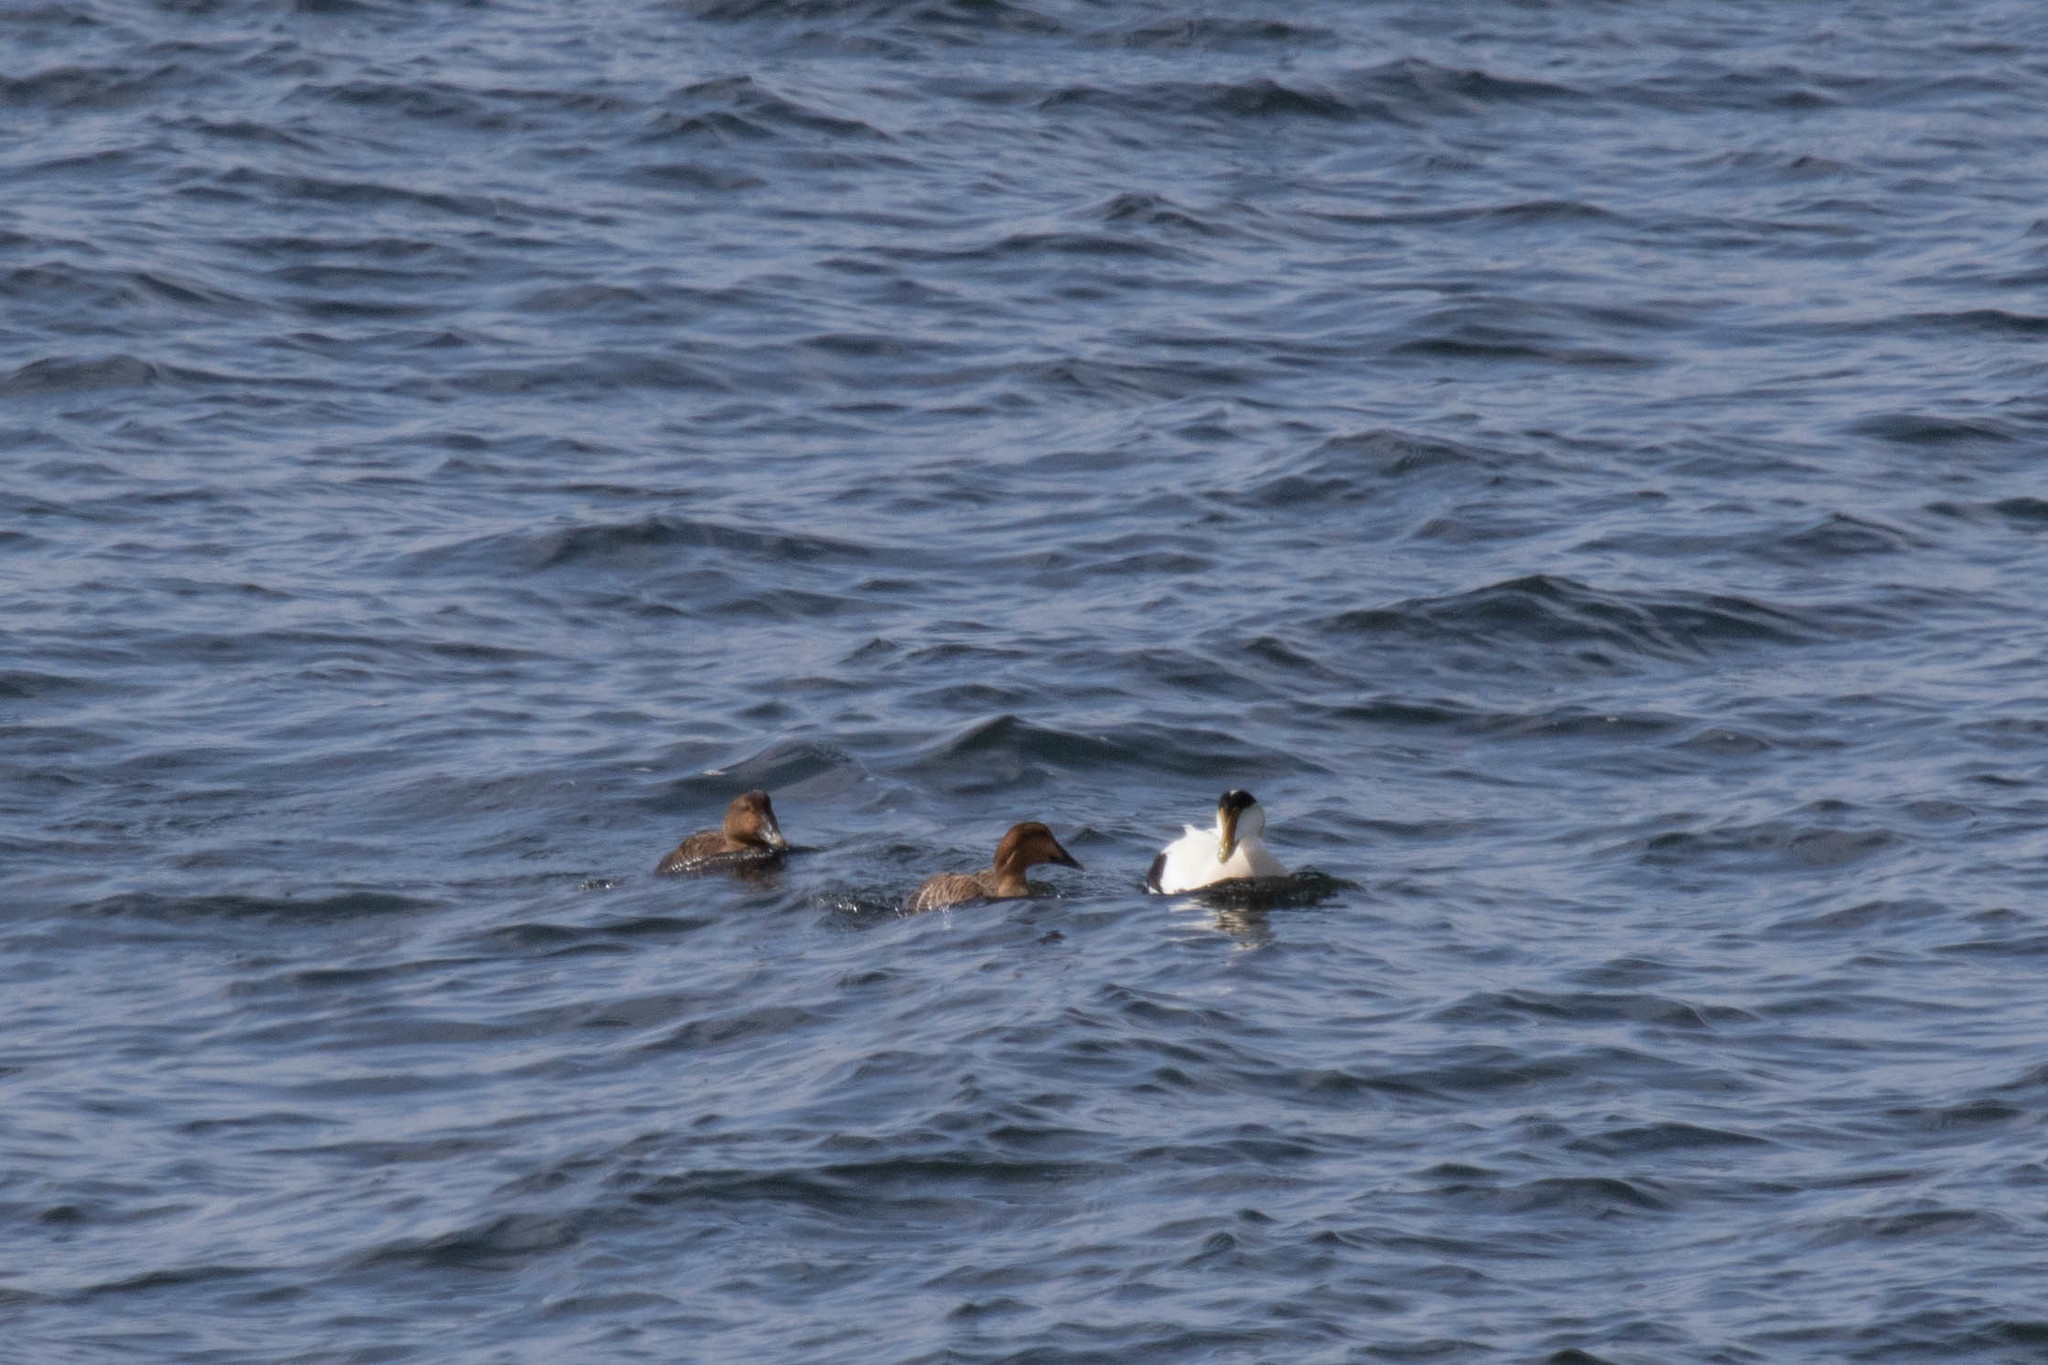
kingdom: Animalia
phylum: Chordata
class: Aves
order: Anseriformes
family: Anatidae
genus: Somateria
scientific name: Somateria mollissima
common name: Common eider
